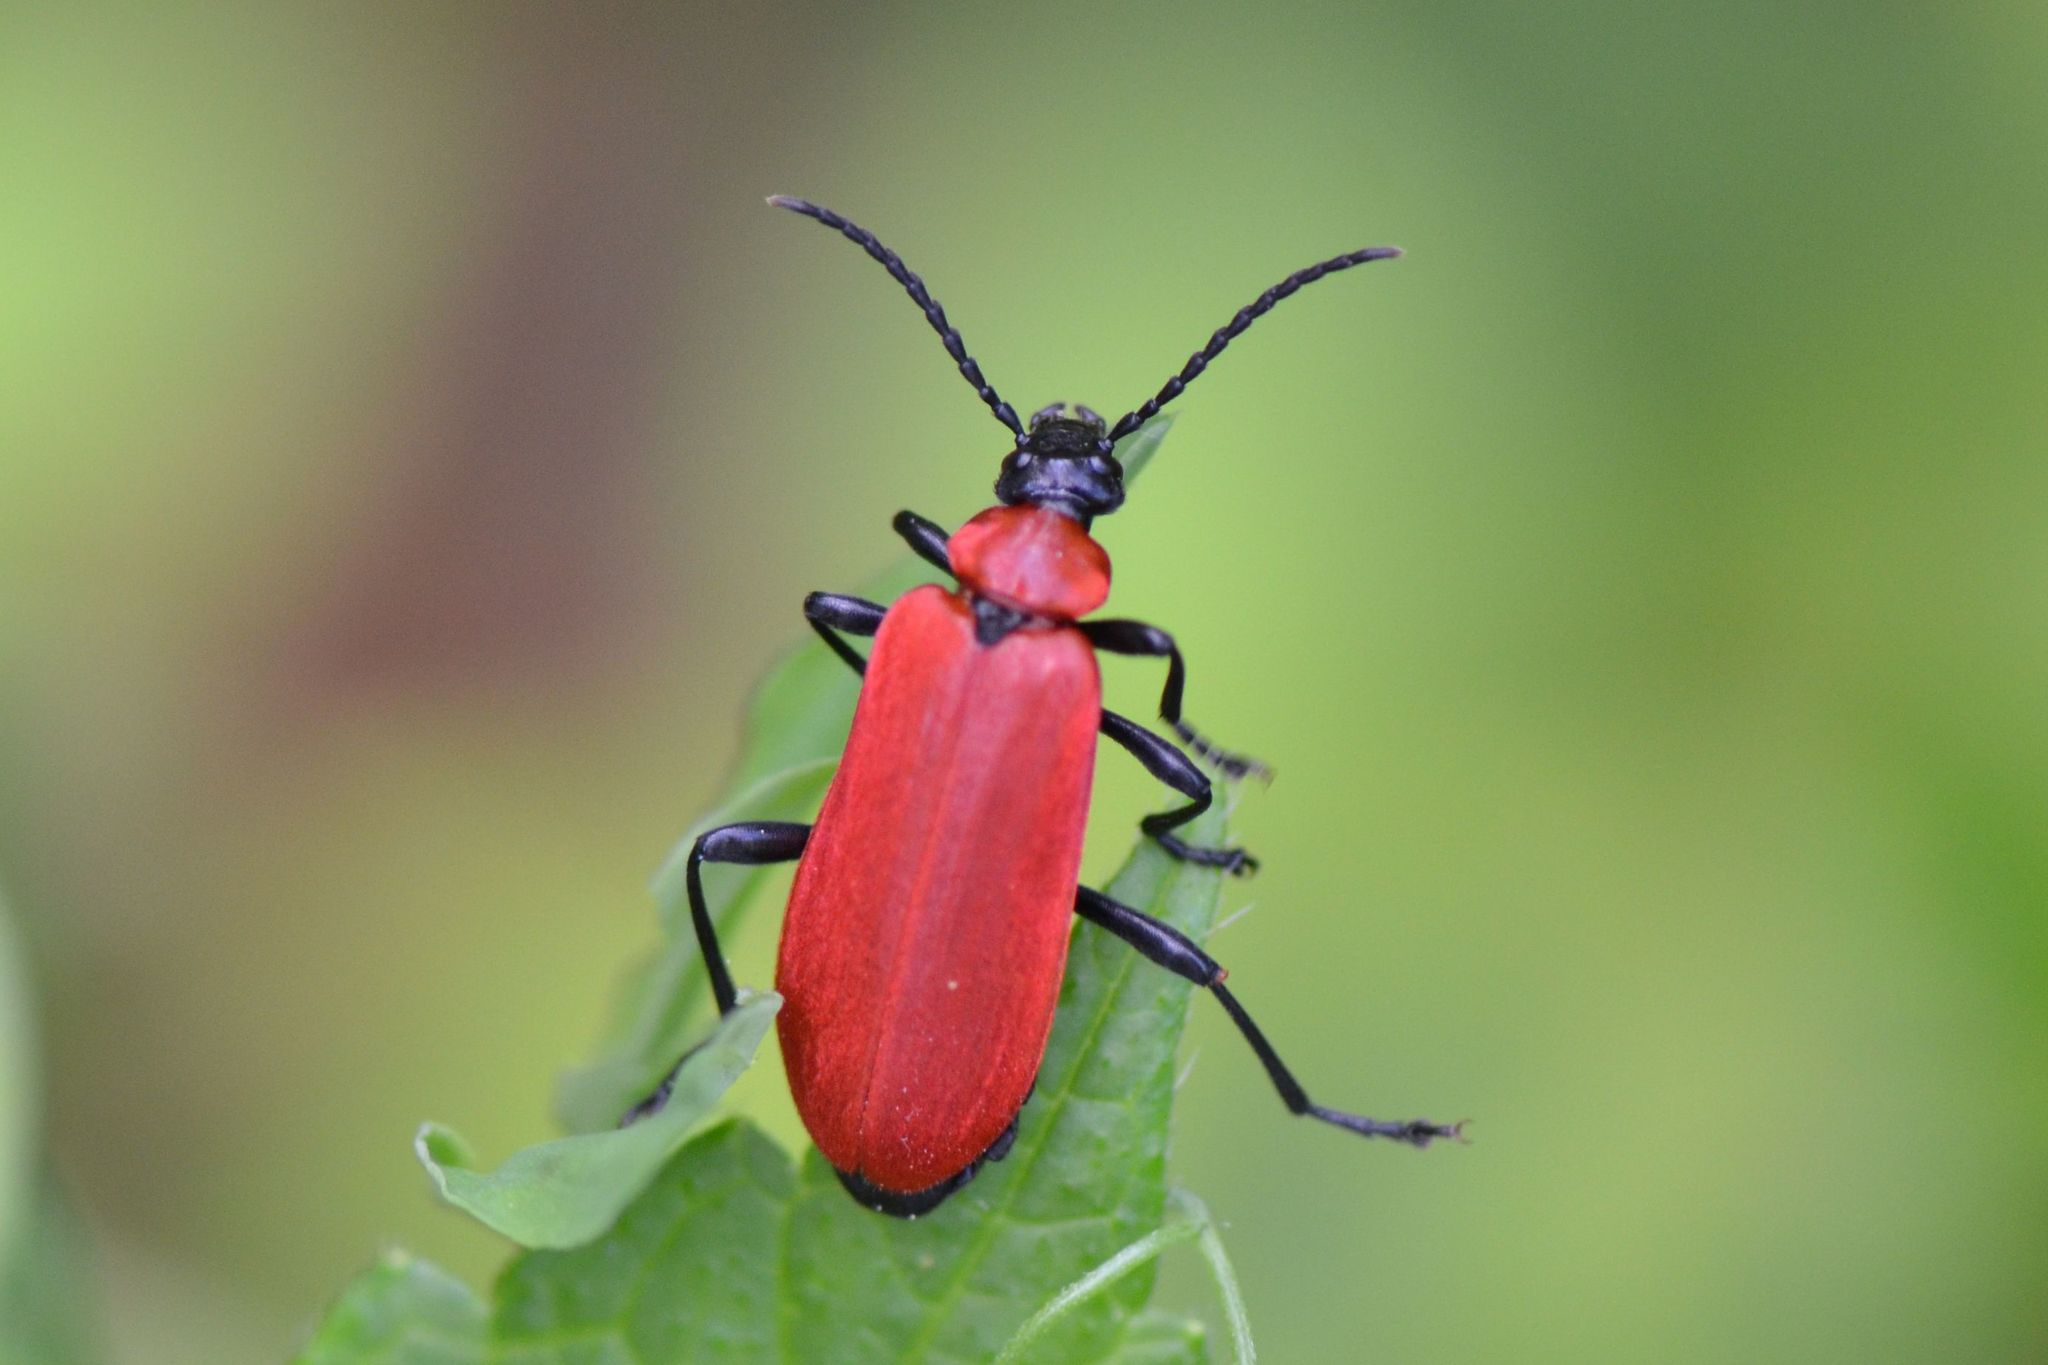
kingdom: Animalia
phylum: Arthropoda
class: Insecta
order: Coleoptera
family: Pyrochroidae
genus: Pyrochroa
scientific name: Pyrochroa coccinea
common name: Black-headed cardinal beetle
